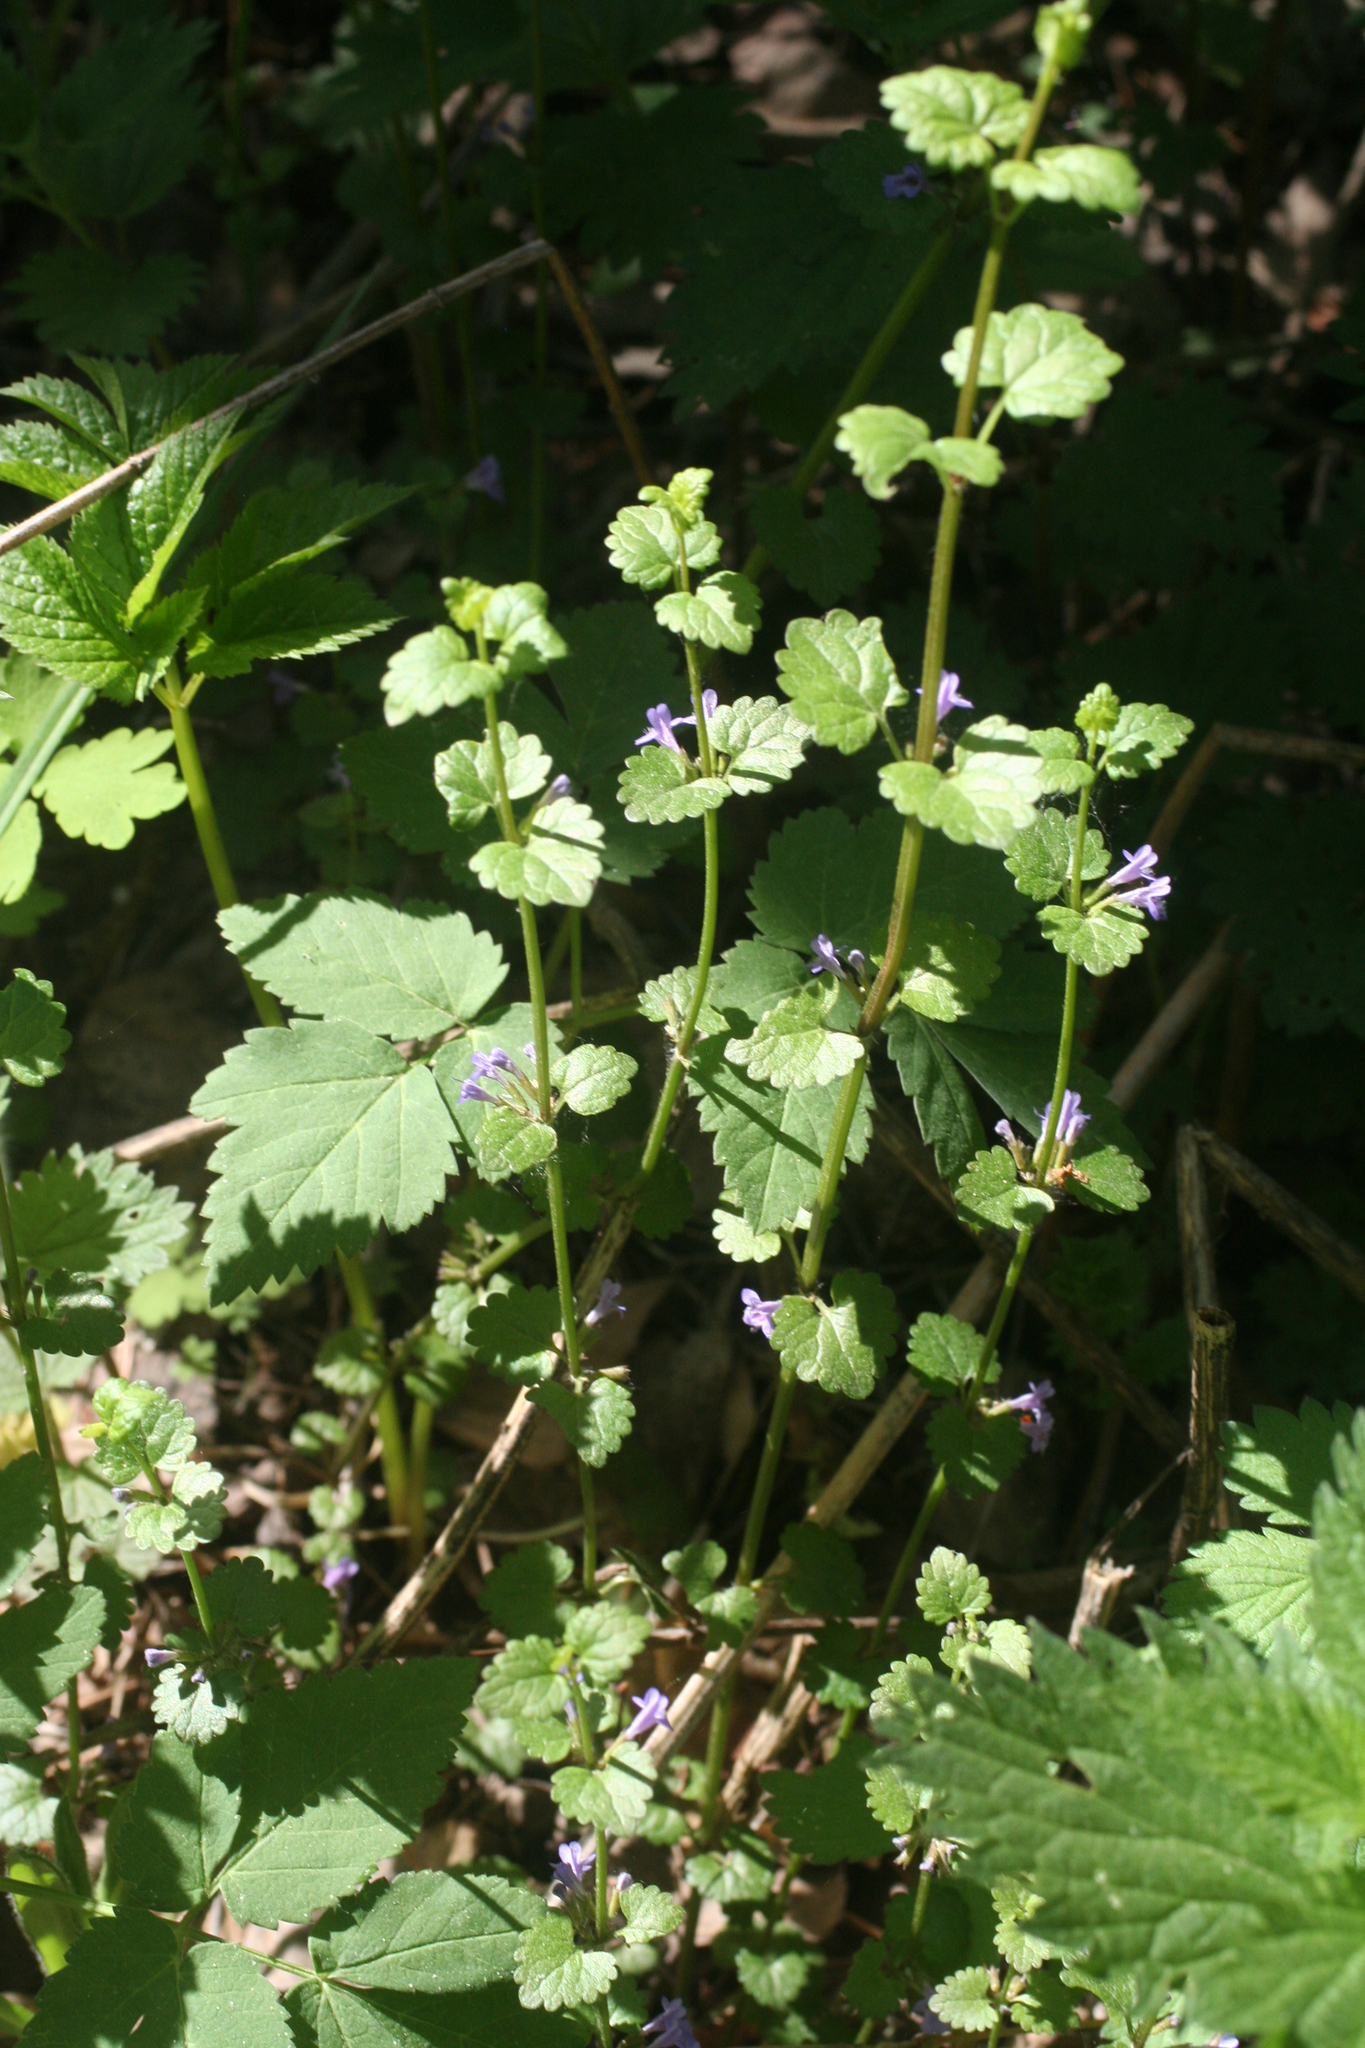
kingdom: Plantae
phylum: Tracheophyta
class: Magnoliopsida
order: Lamiales
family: Lamiaceae
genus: Glechoma
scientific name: Glechoma hederacea
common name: Ground ivy
